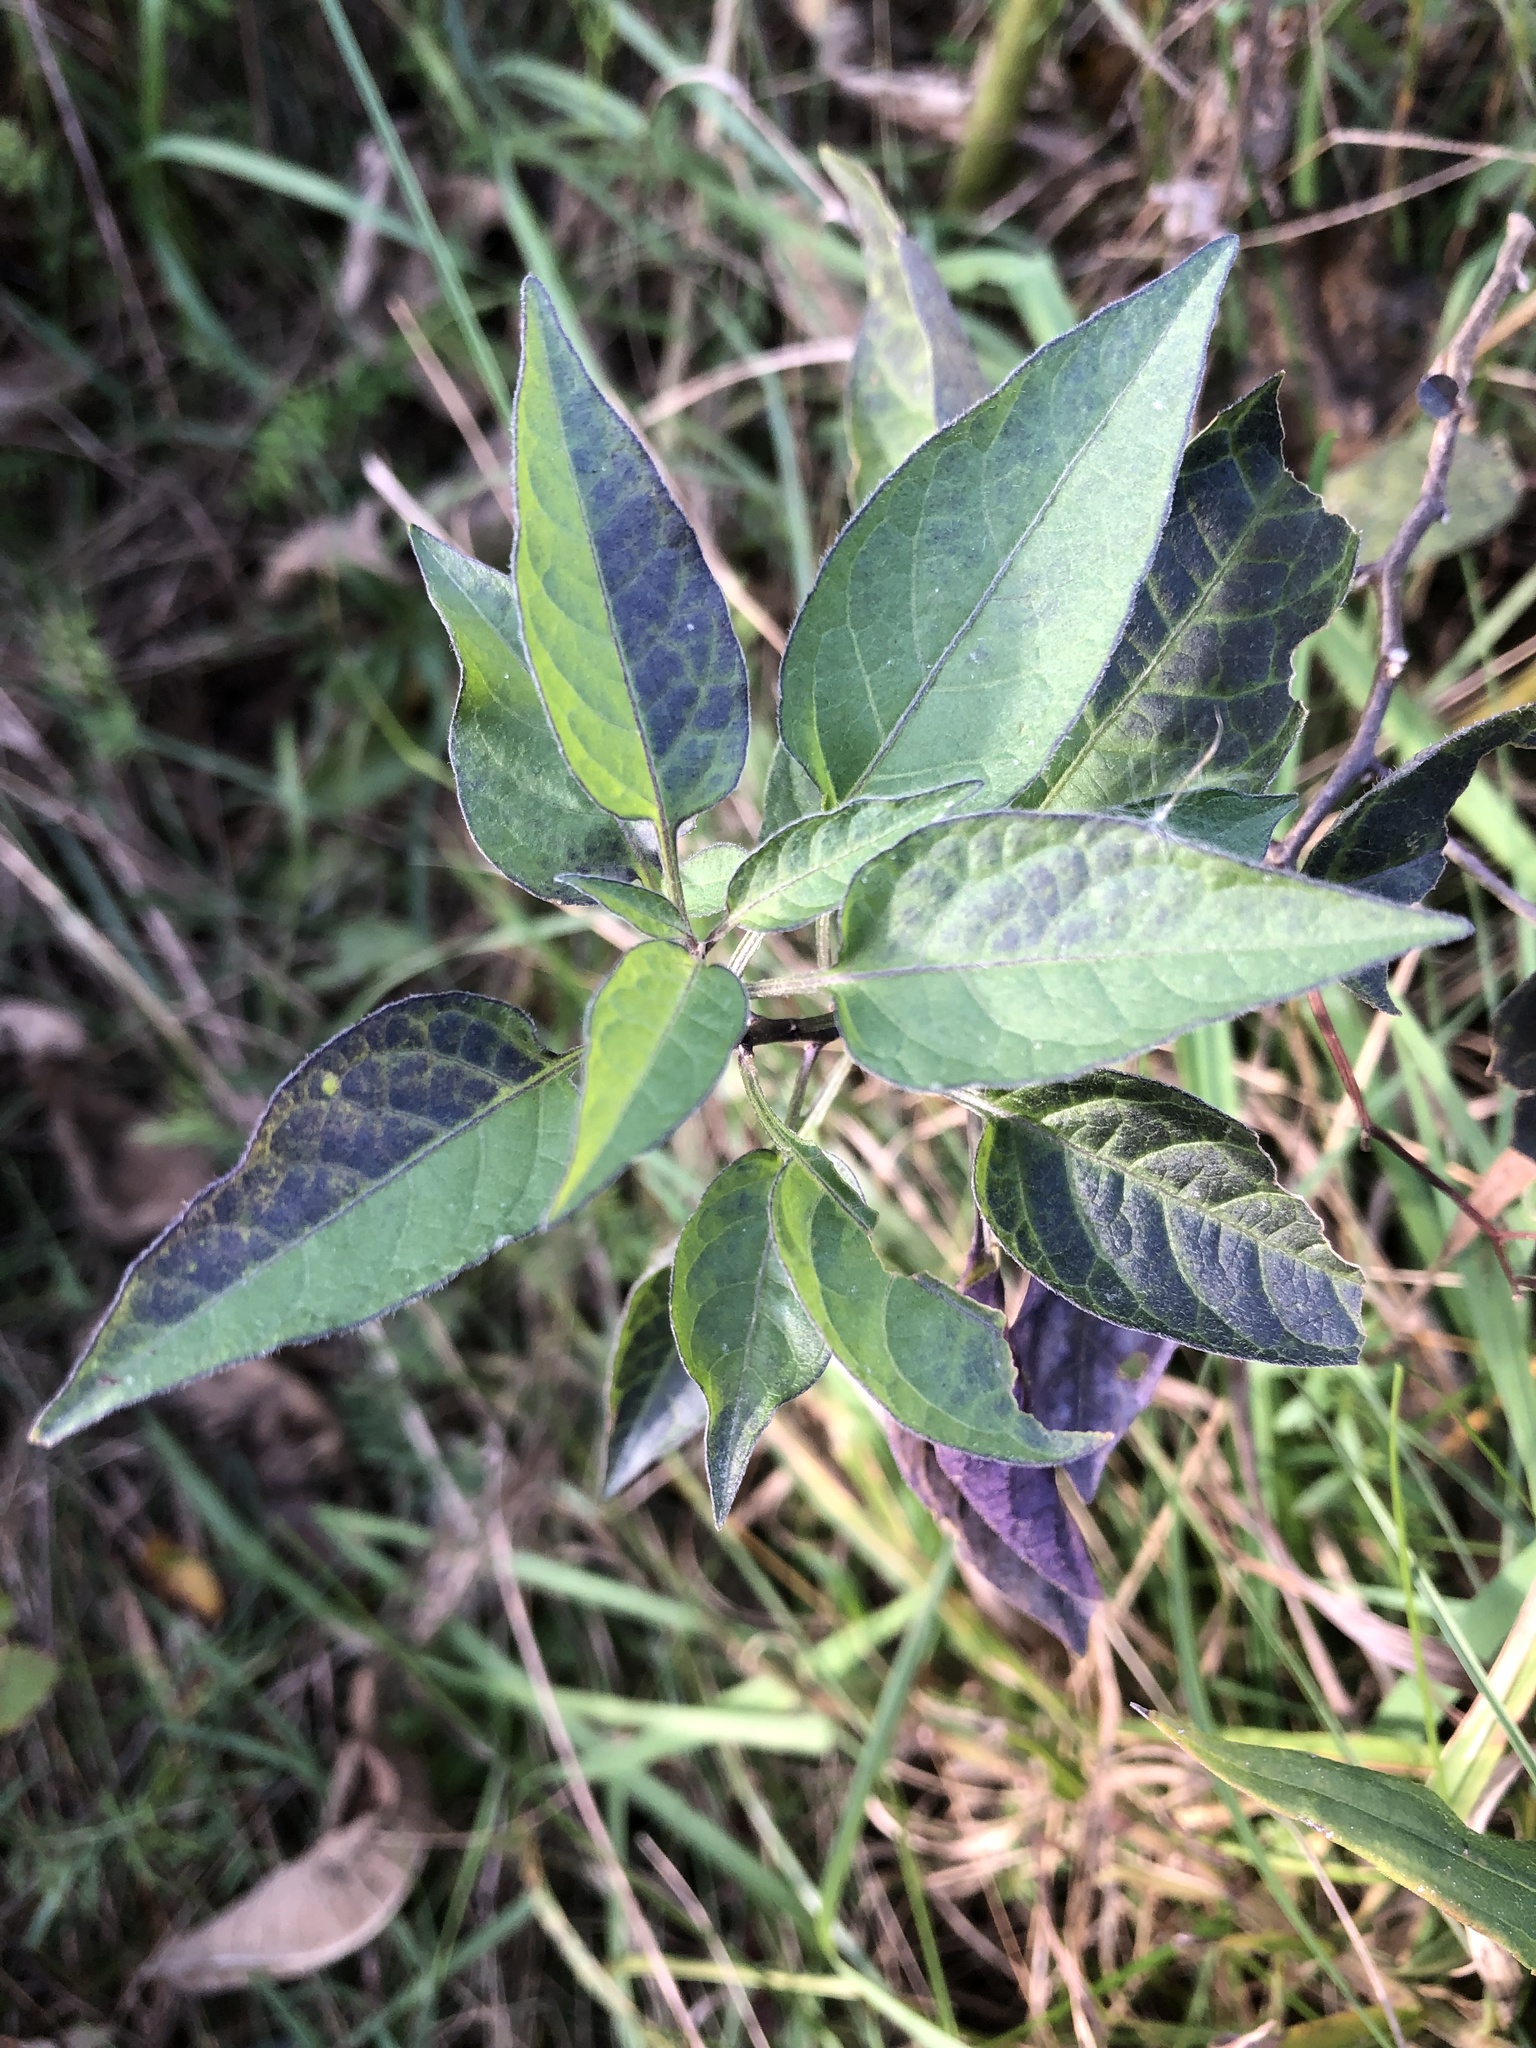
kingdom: Plantae
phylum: Tracheophyta
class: Magnoliopsida
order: Solanales
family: Solanaceae
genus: Solanum
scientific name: Solanum dulcamara
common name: Climbing nightshade
